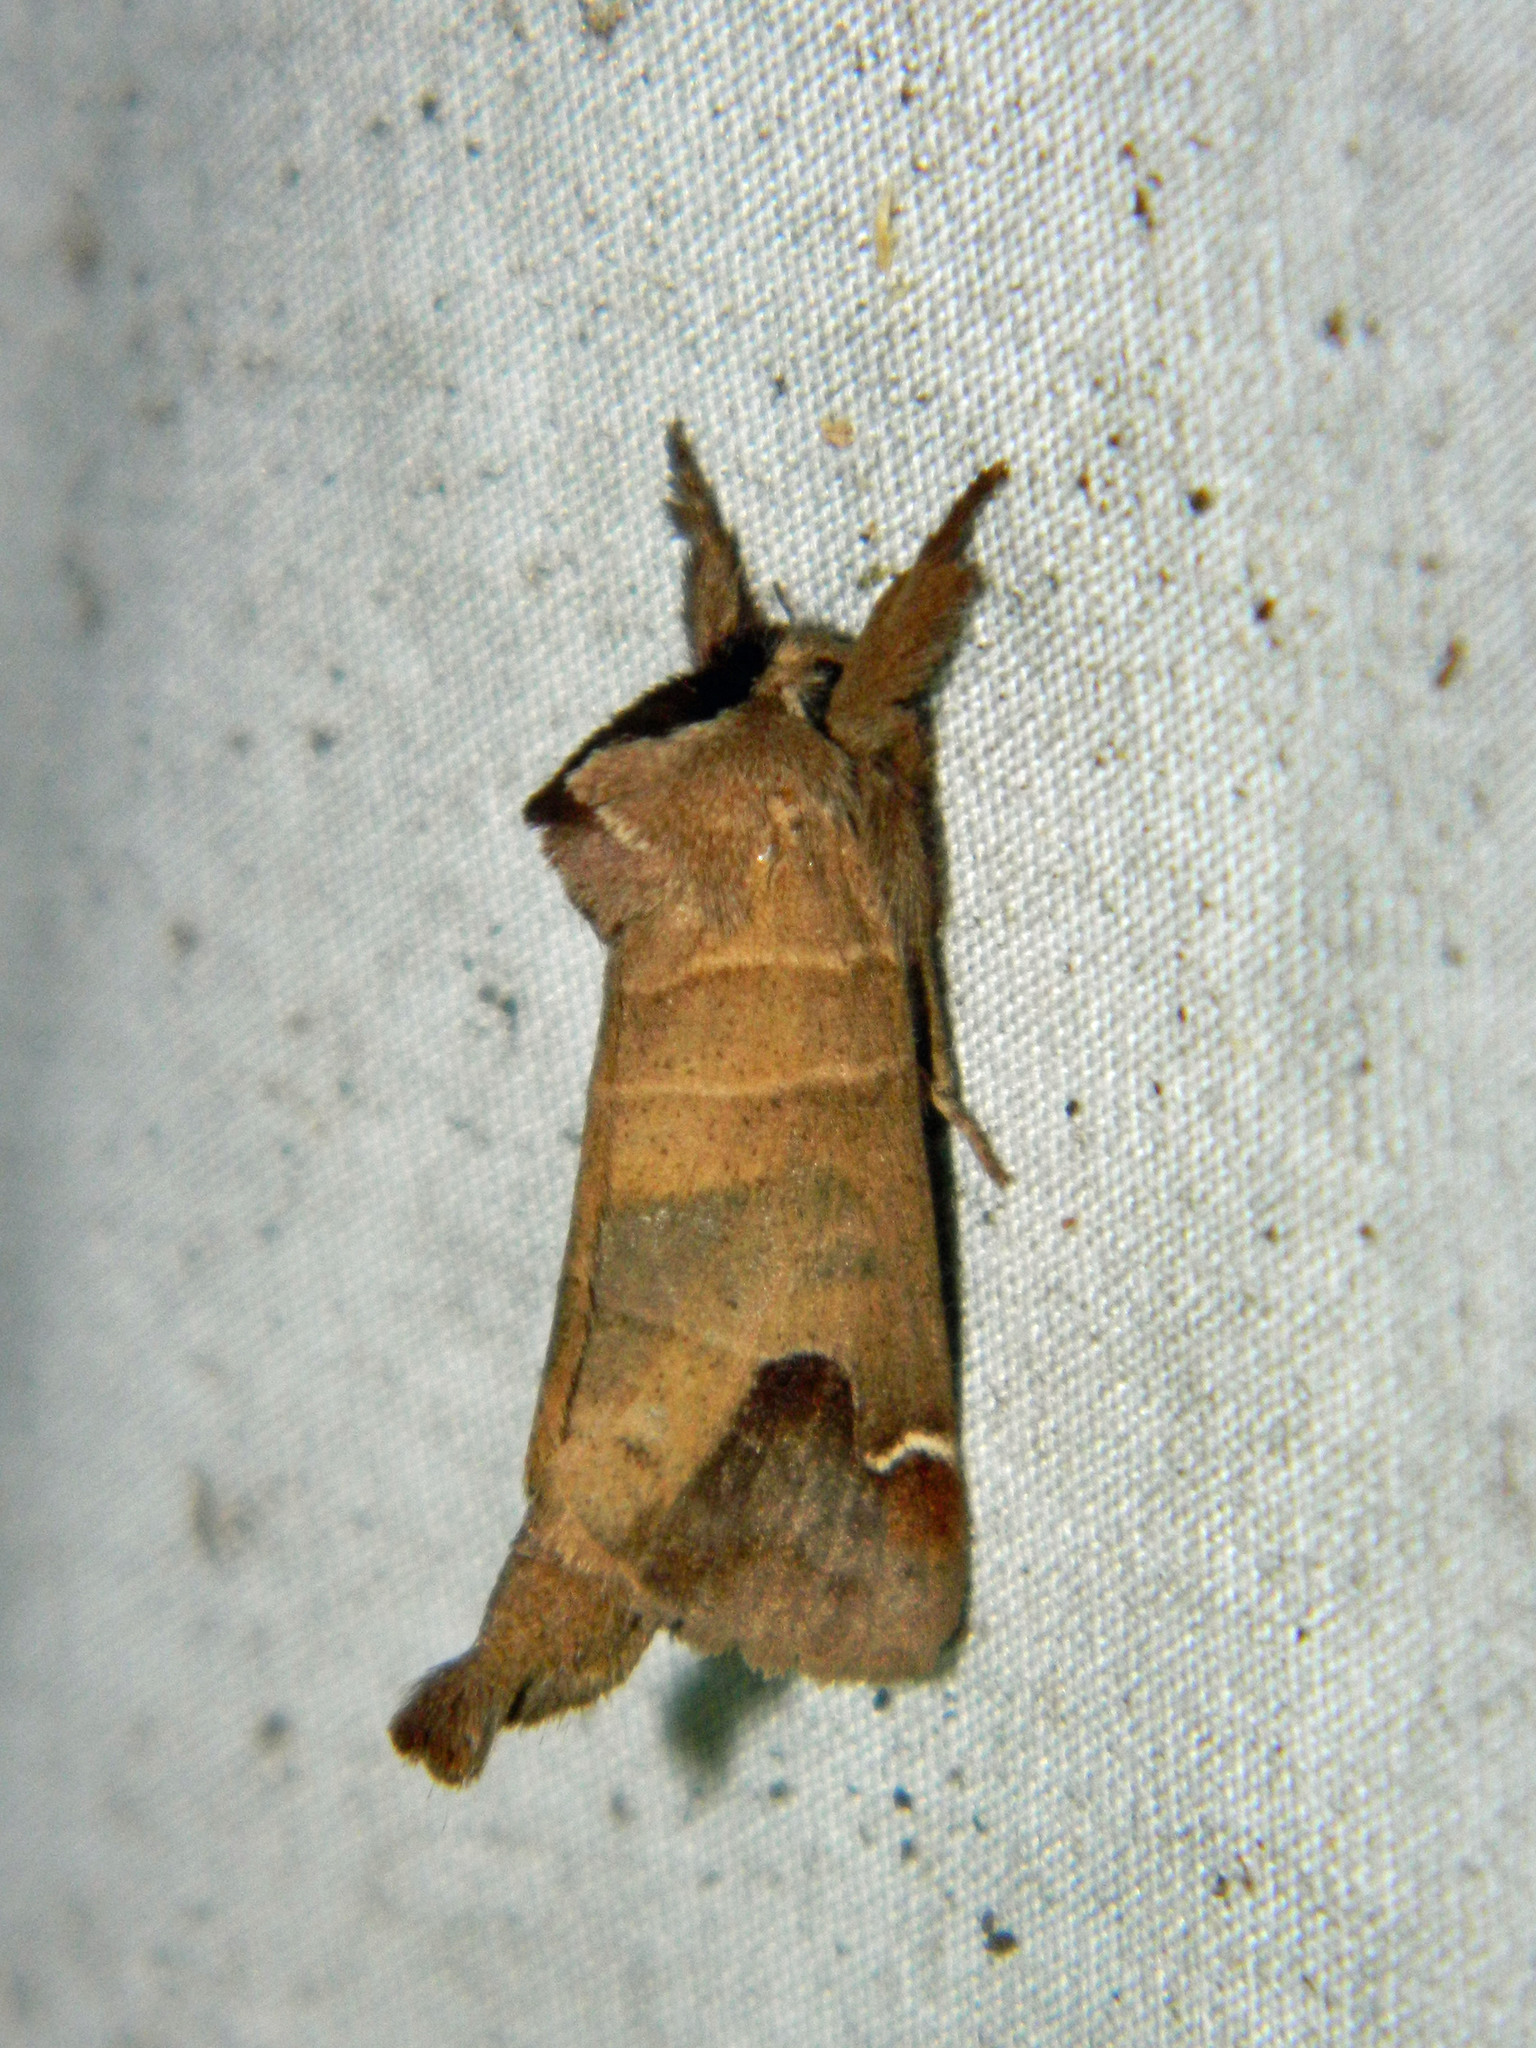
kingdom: Animalia
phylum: Arthropoda
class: Insecta
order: Lepidoptera
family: Notodontidae
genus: Clostera
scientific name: Clostera albosigma
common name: Sigmoid prominent
